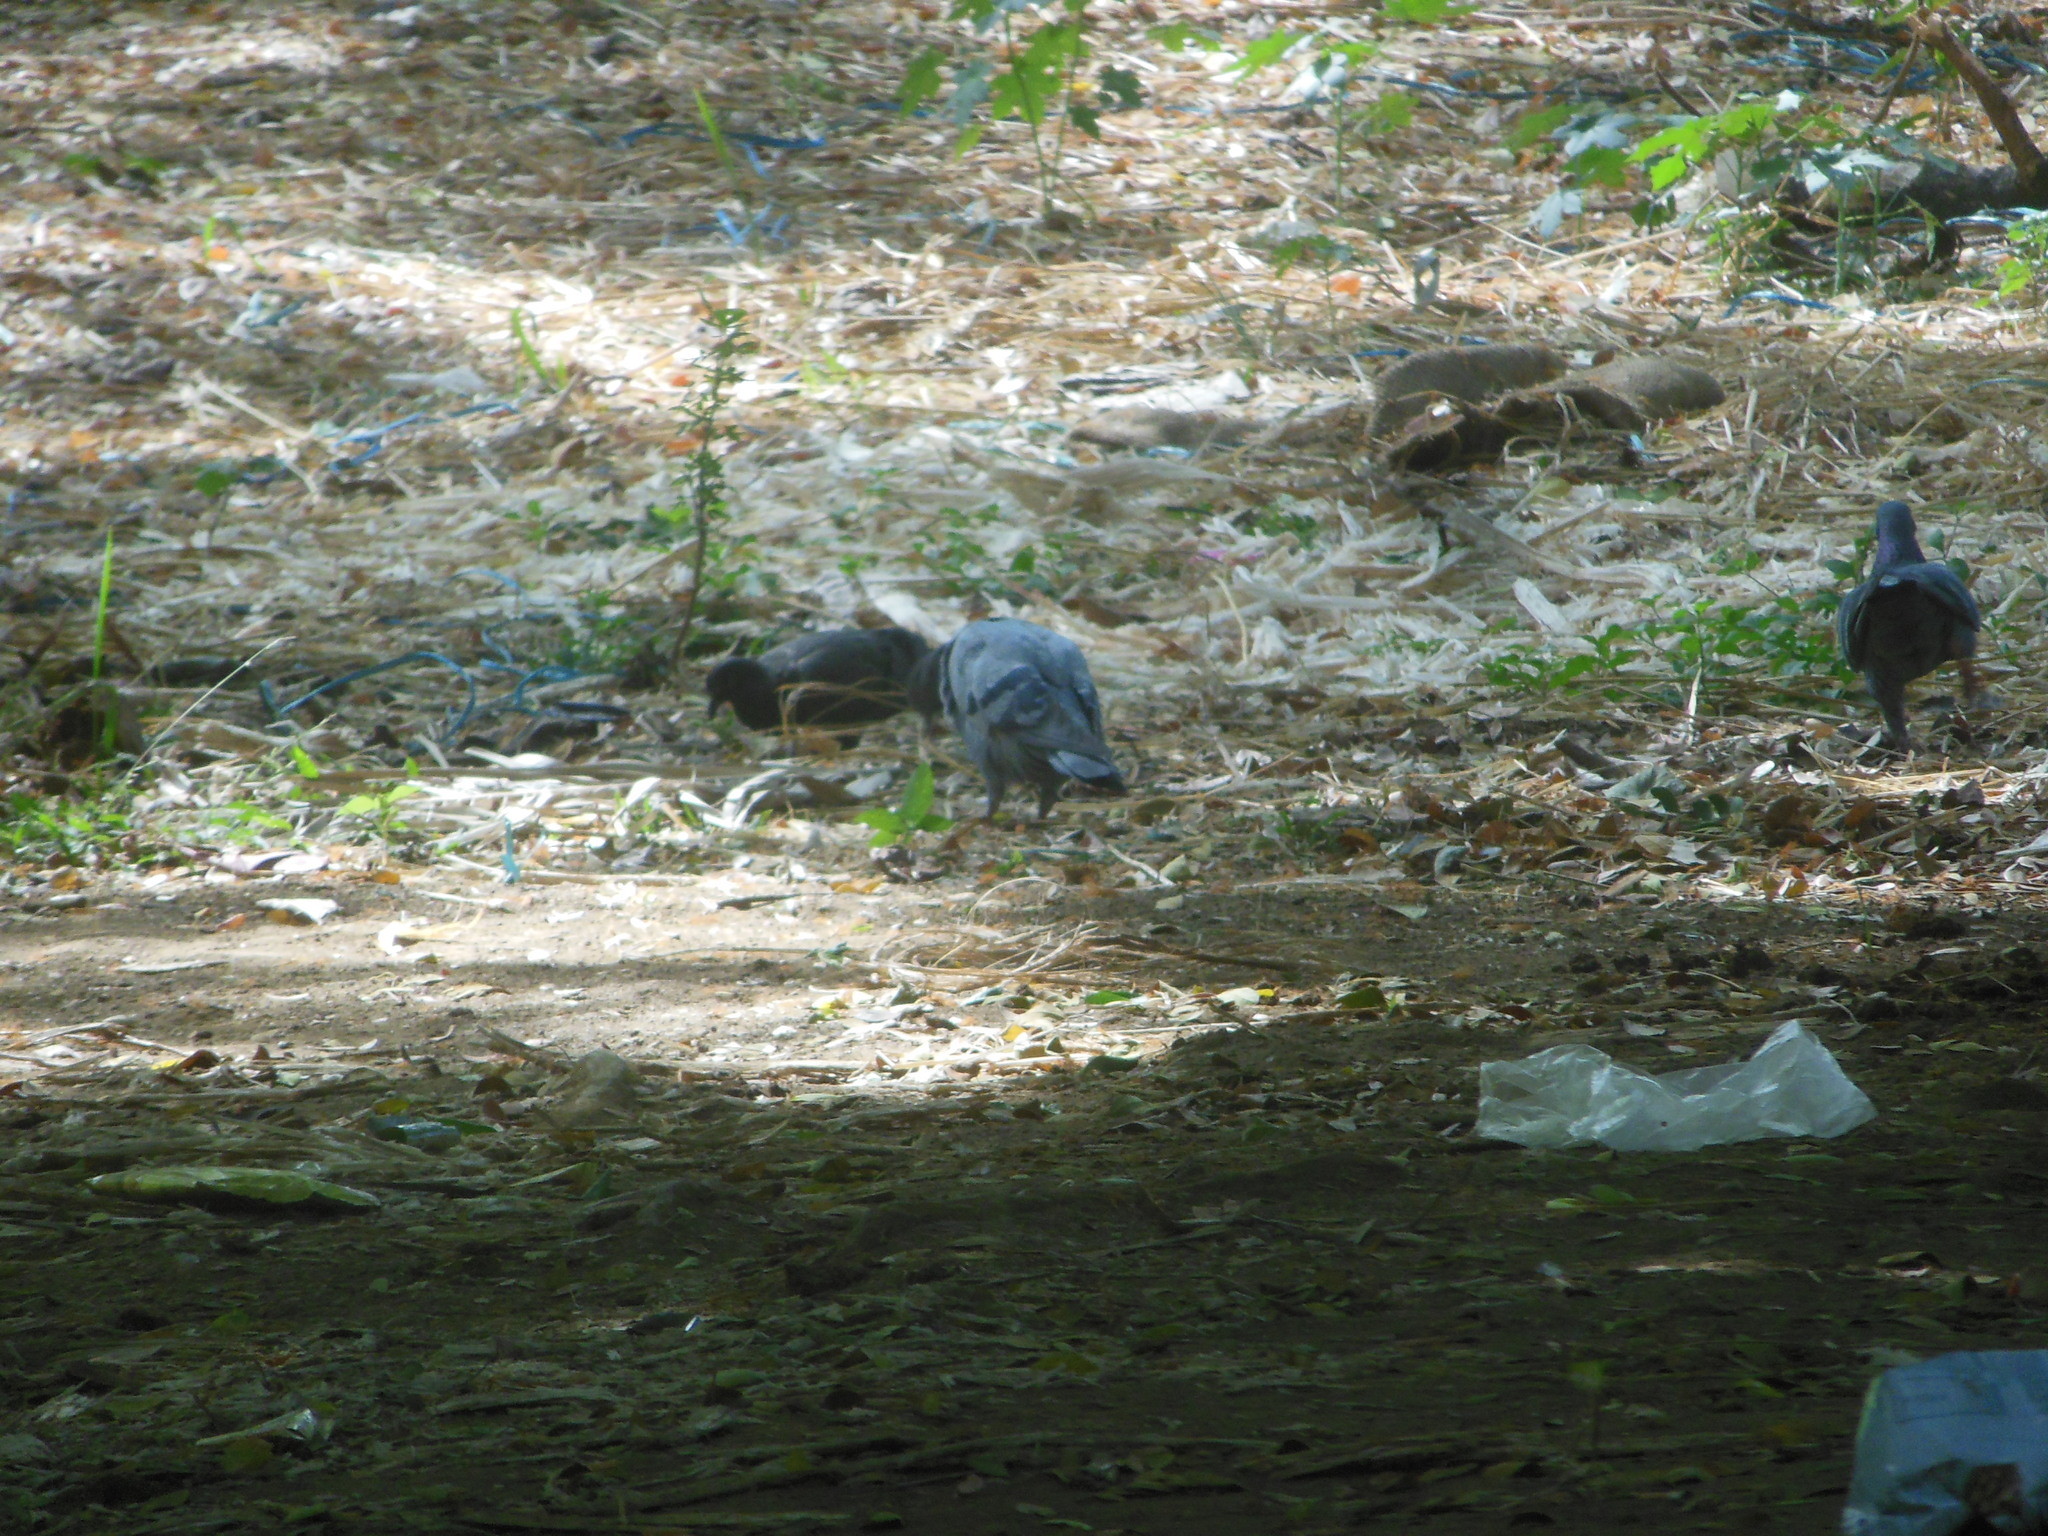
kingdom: Animalia
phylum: Chordata
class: Aves
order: Columbiformes
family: Columbidae
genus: Columba
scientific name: Columba livia
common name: Rock pigeon
